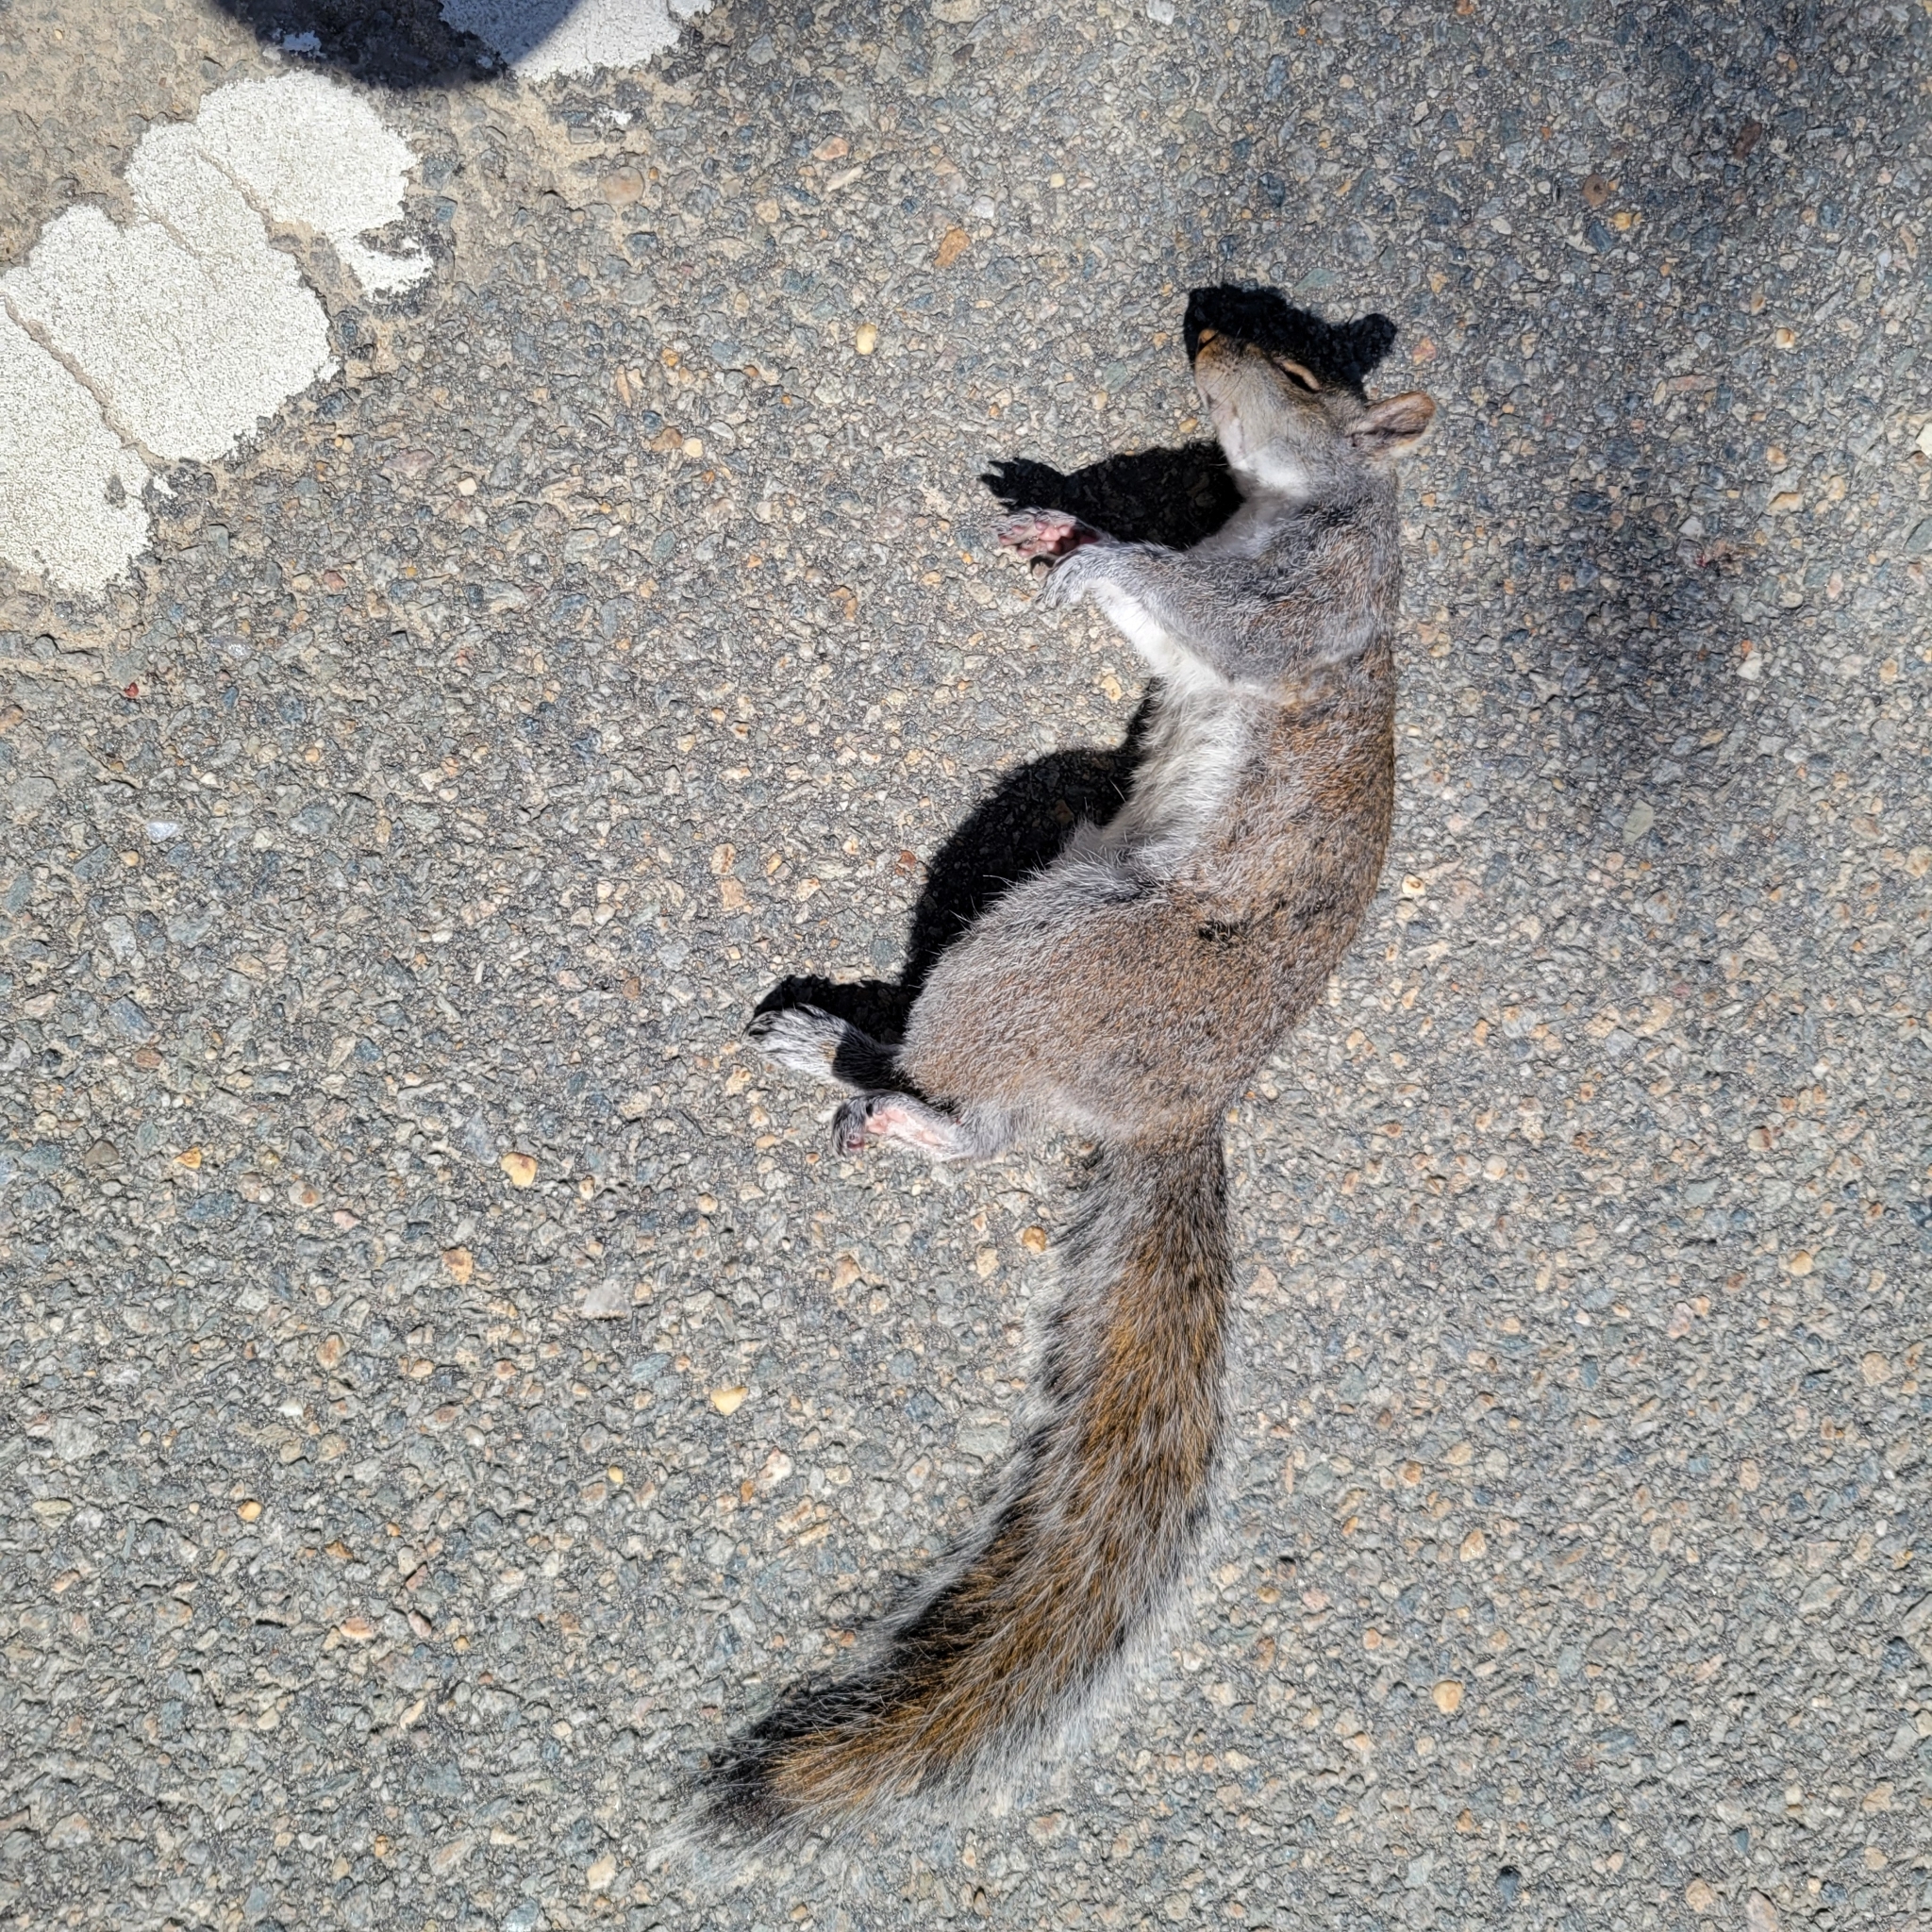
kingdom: Animalia
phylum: Chordata
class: Mammalia
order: Rodentia
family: Sciuridae
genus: Sciurus
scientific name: Sciurus carolinensis
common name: Eastern gray squirrel
